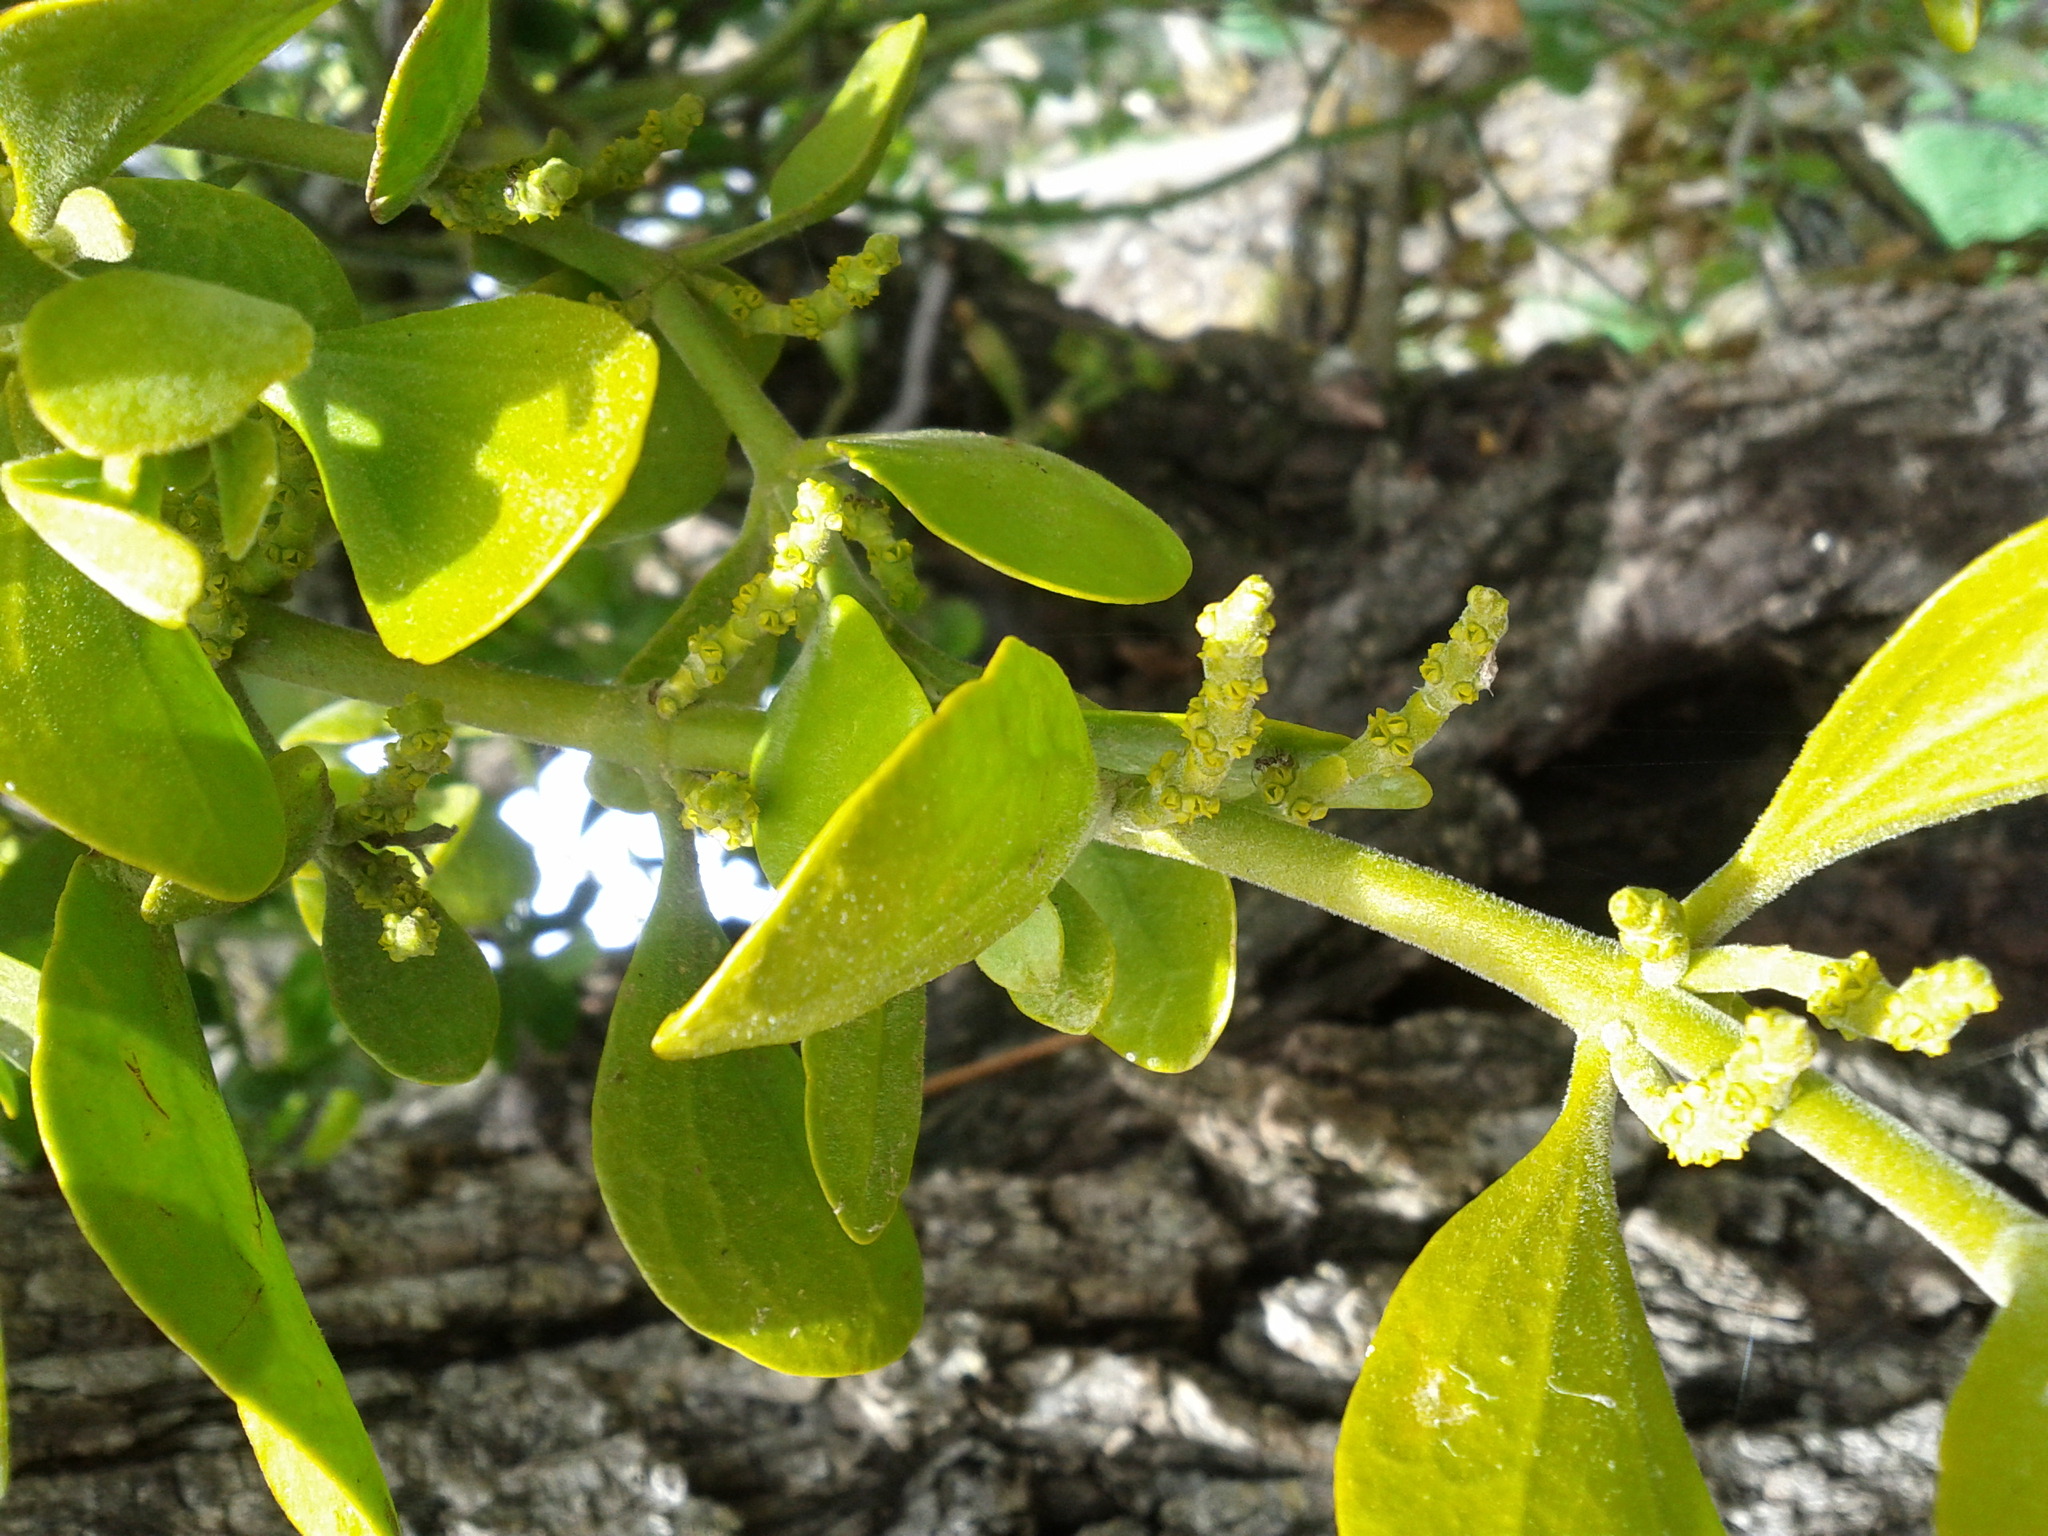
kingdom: Plantae
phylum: Tracheophyta
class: Magnoliopsida
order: Santalales
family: Viscaceae
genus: Phoradendron
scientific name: Phoradendron
